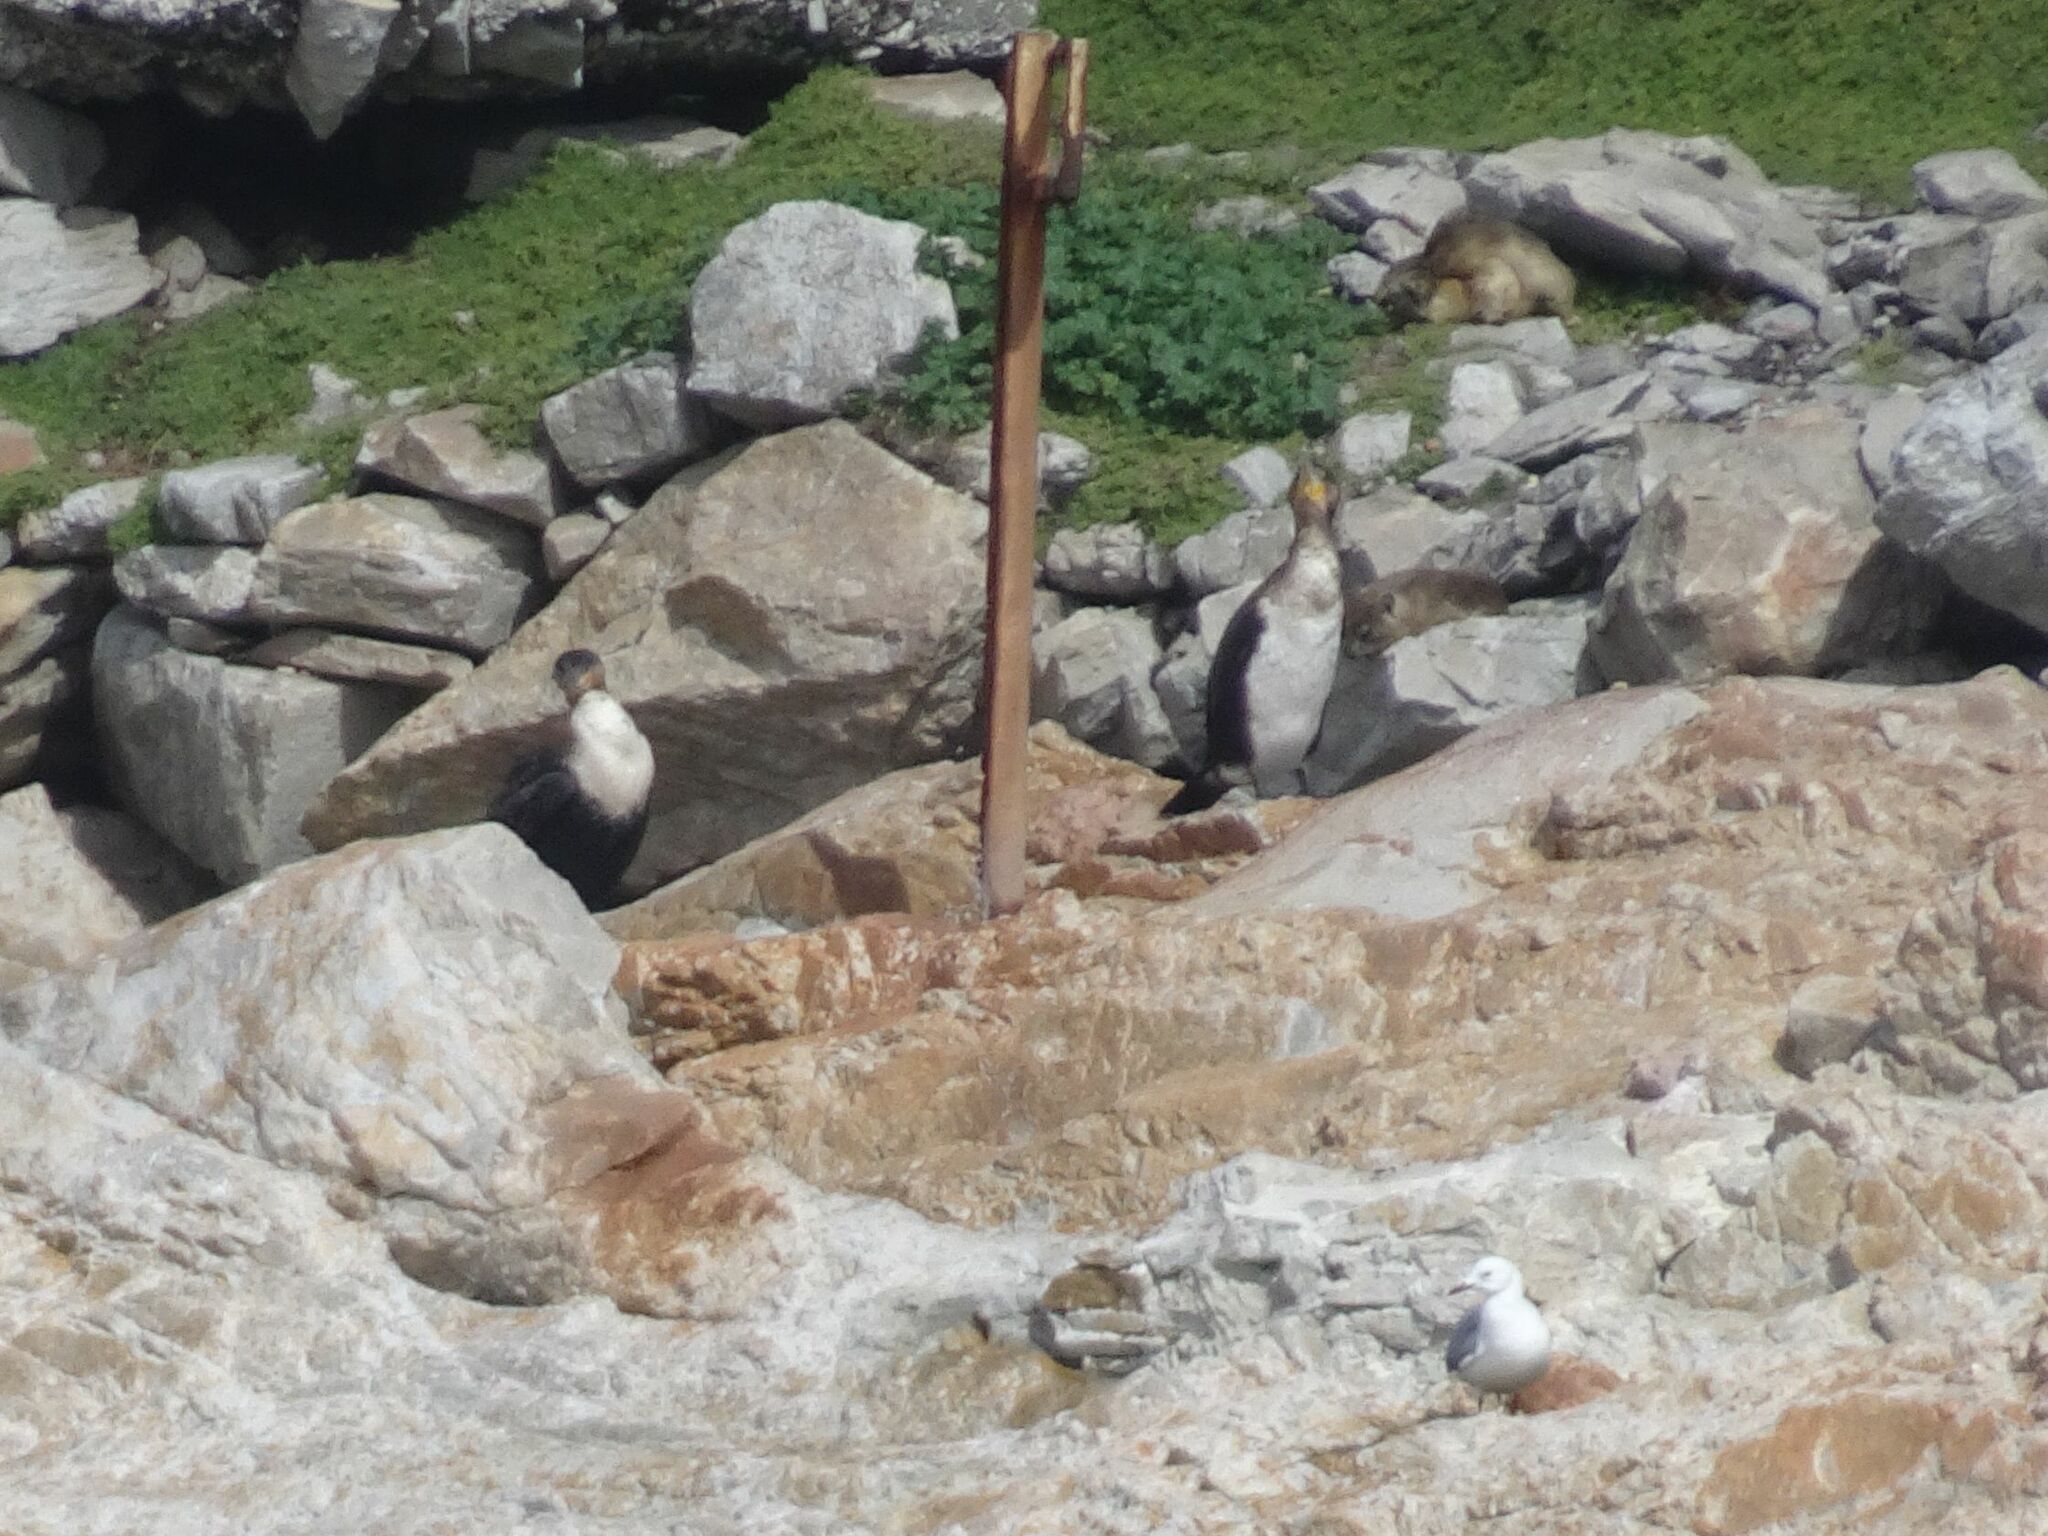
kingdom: Animalia
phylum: Chordata
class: Aves
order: Suliformes
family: Phalacrocoracidae
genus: Phalacrocorax
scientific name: Phalacrocorax carbo
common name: Great cormorant
